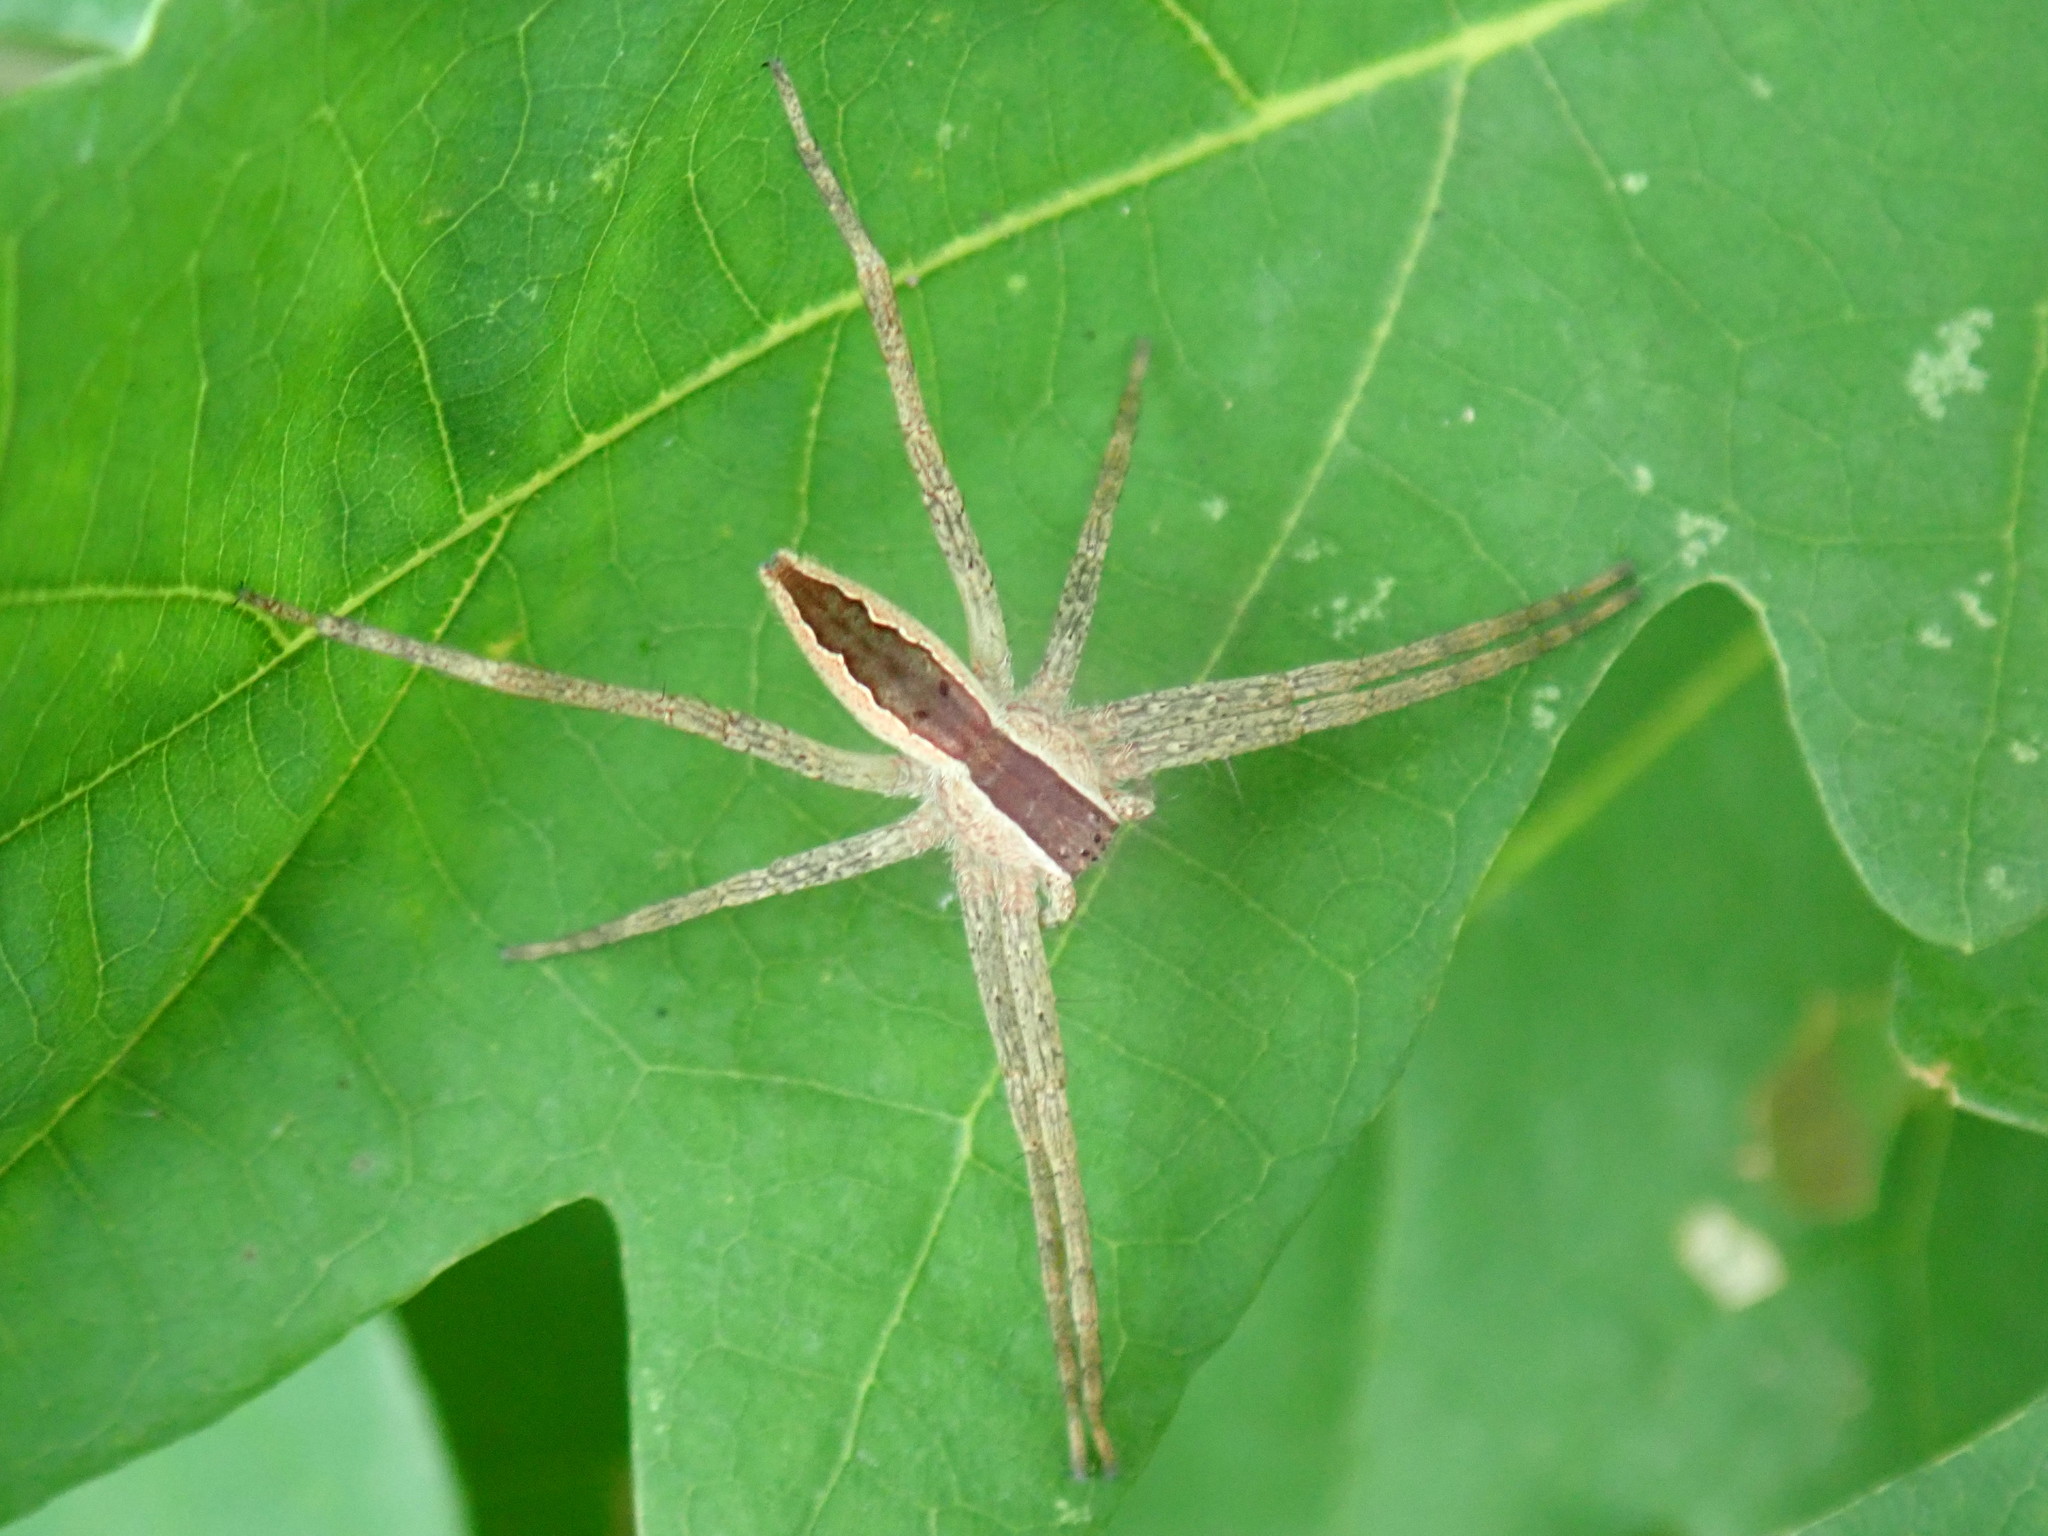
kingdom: Animalia
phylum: Arthropoda
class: Arachnida
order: Araneae
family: Pisauridae
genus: Pisaurina
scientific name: Pisaurina mira
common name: American nursery web spider
